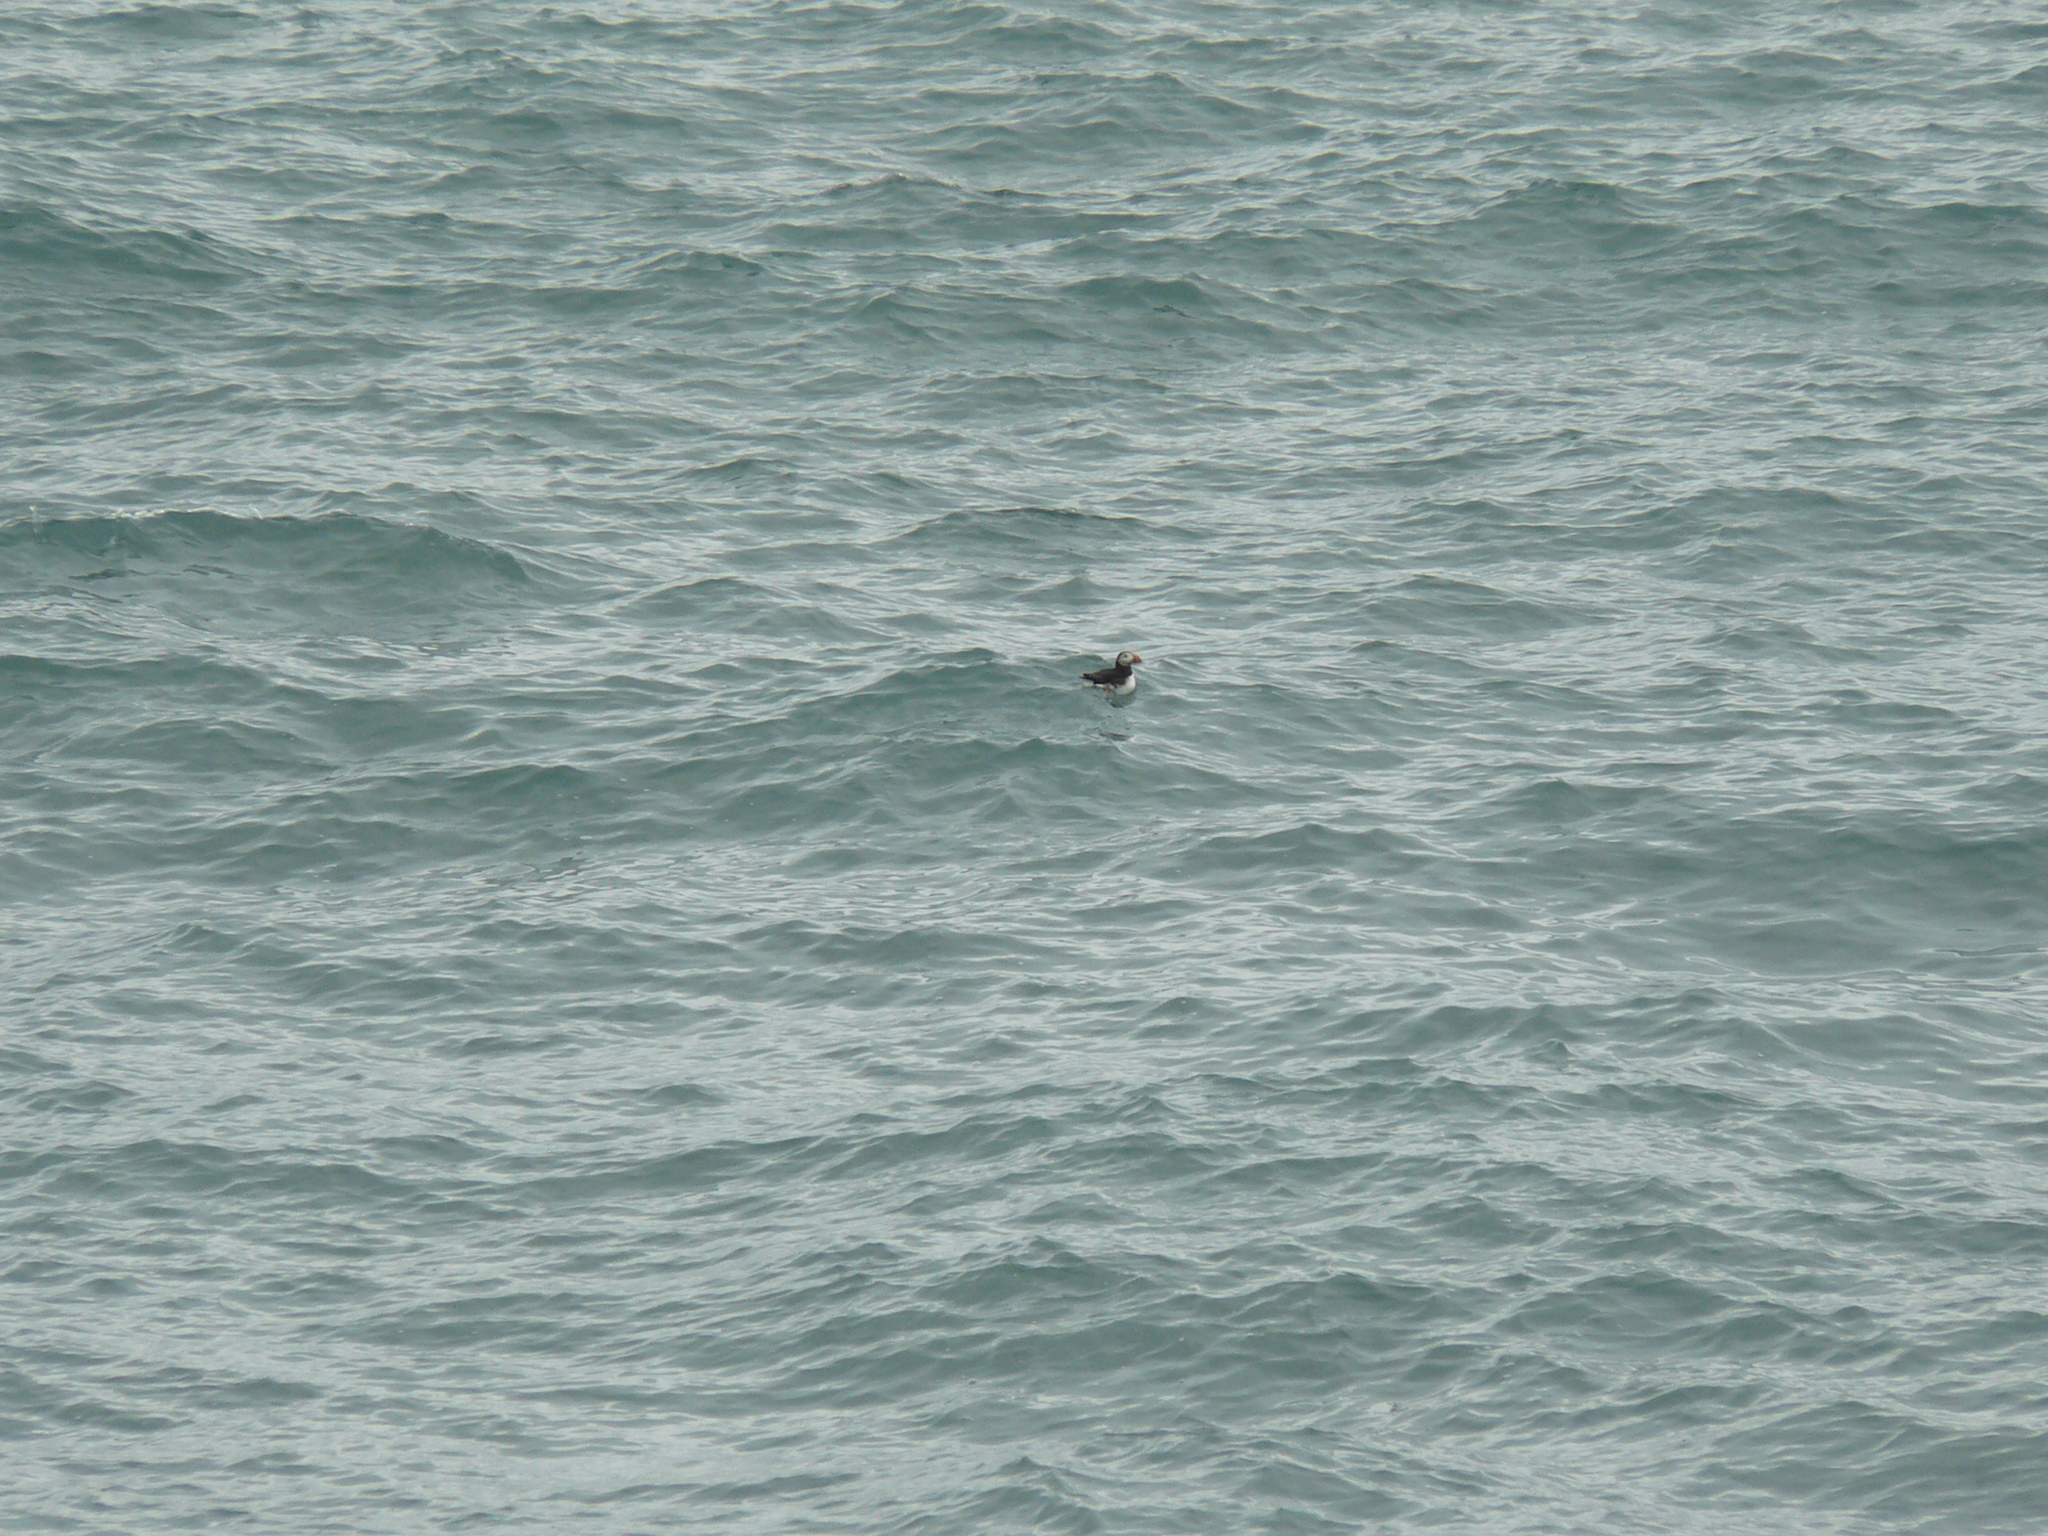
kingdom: Animalia
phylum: Chordata
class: Aves
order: Charadriiformes
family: Alcidae
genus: Fratercula
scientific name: Fratercula arctica
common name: Atlantic puffin
